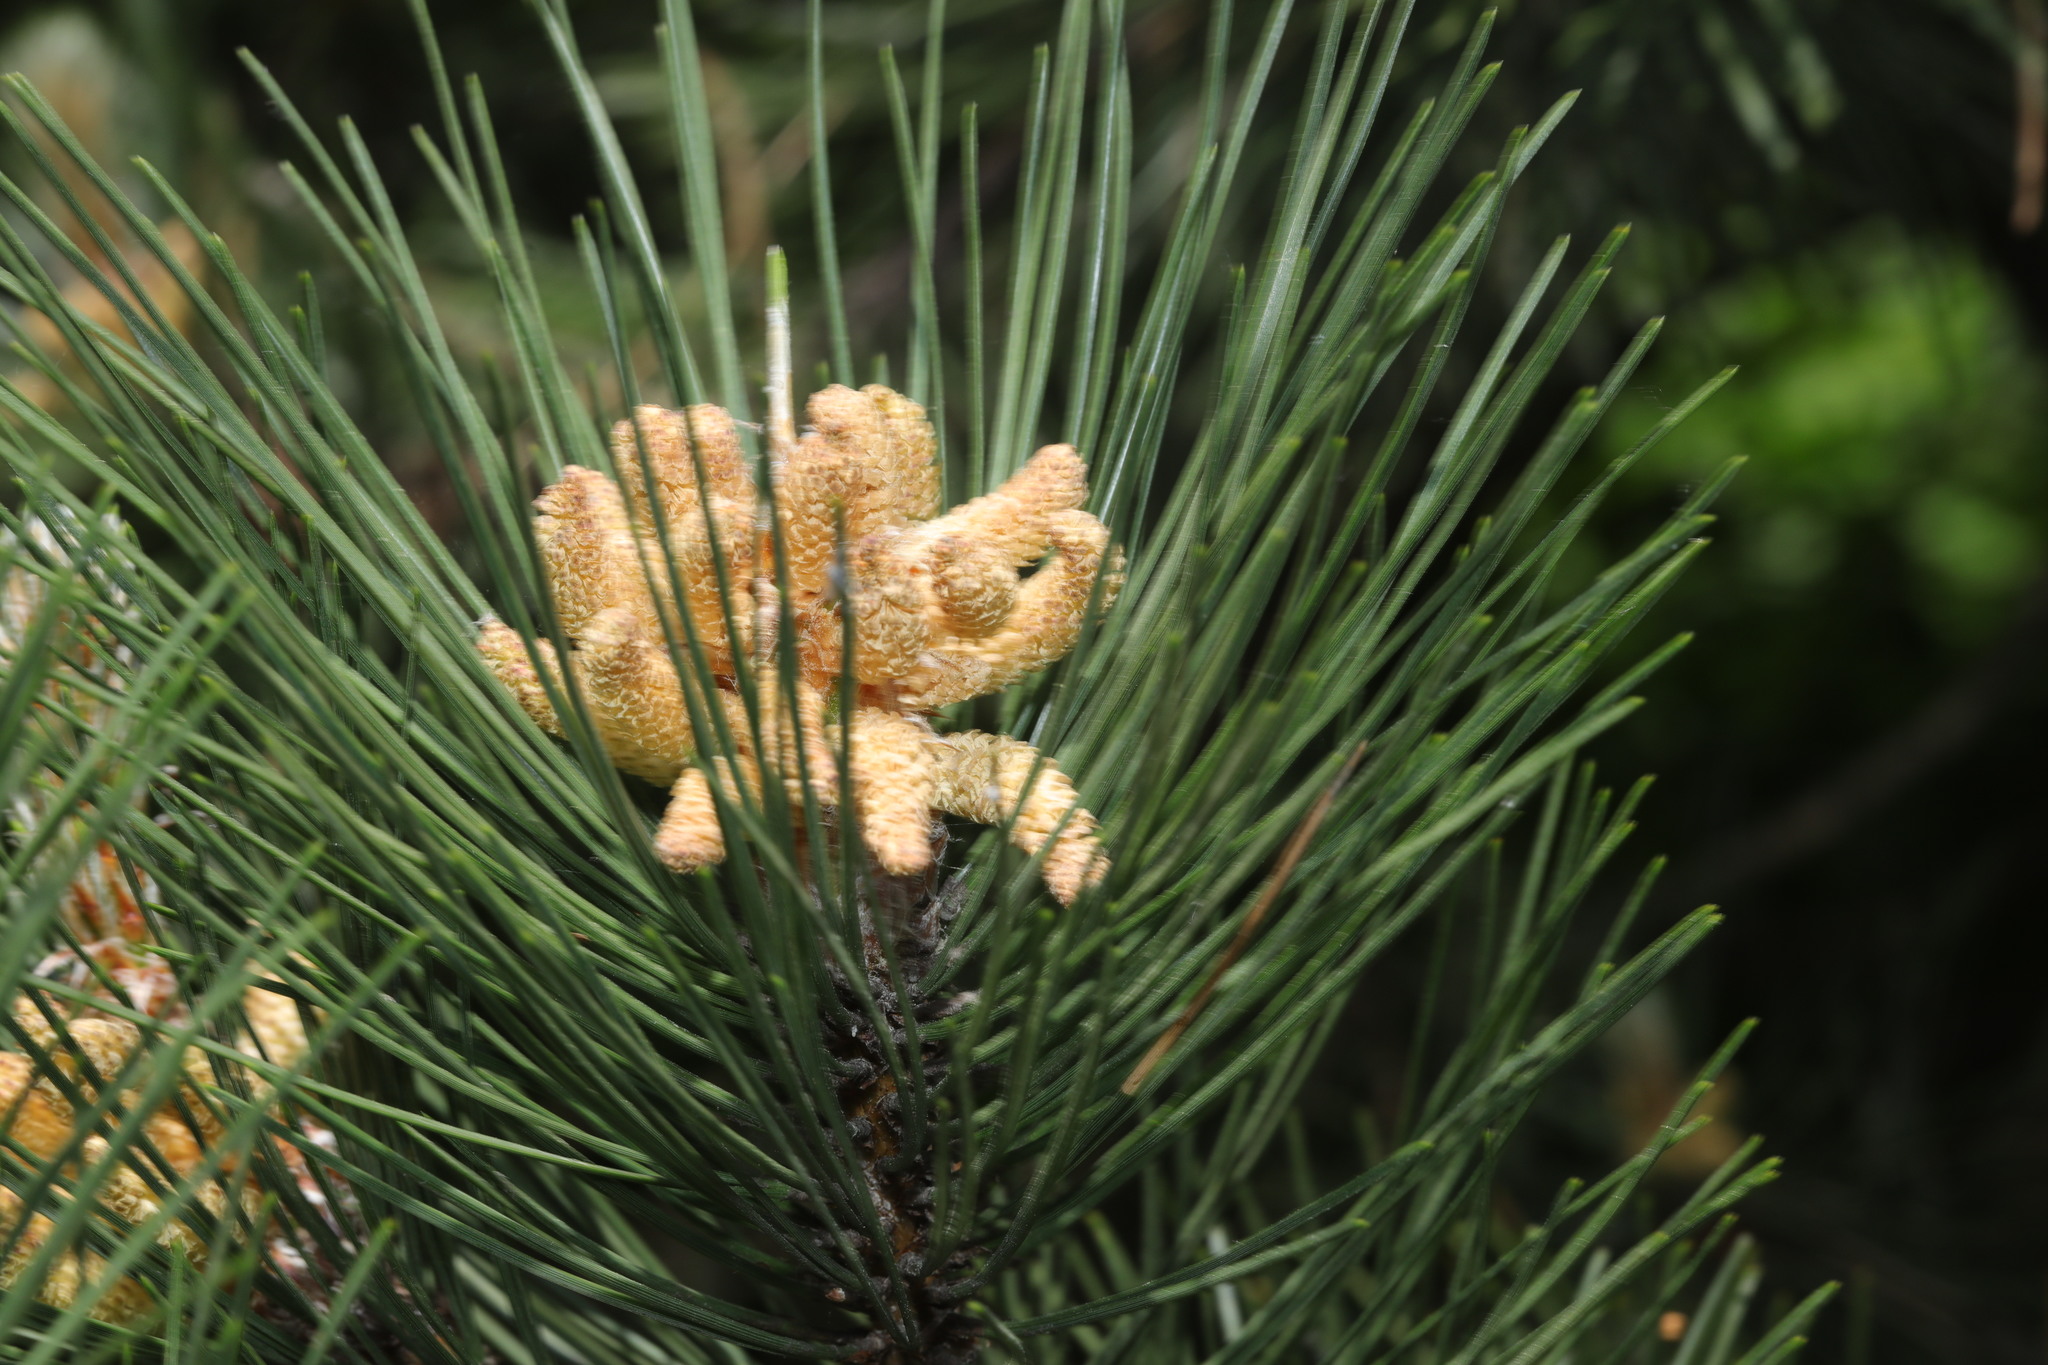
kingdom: Plantae
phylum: Tracheophyta
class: Pinopsida
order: Pinales
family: Pinaceae
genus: Pinus
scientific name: Pinus sylvestris
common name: Scots pine
